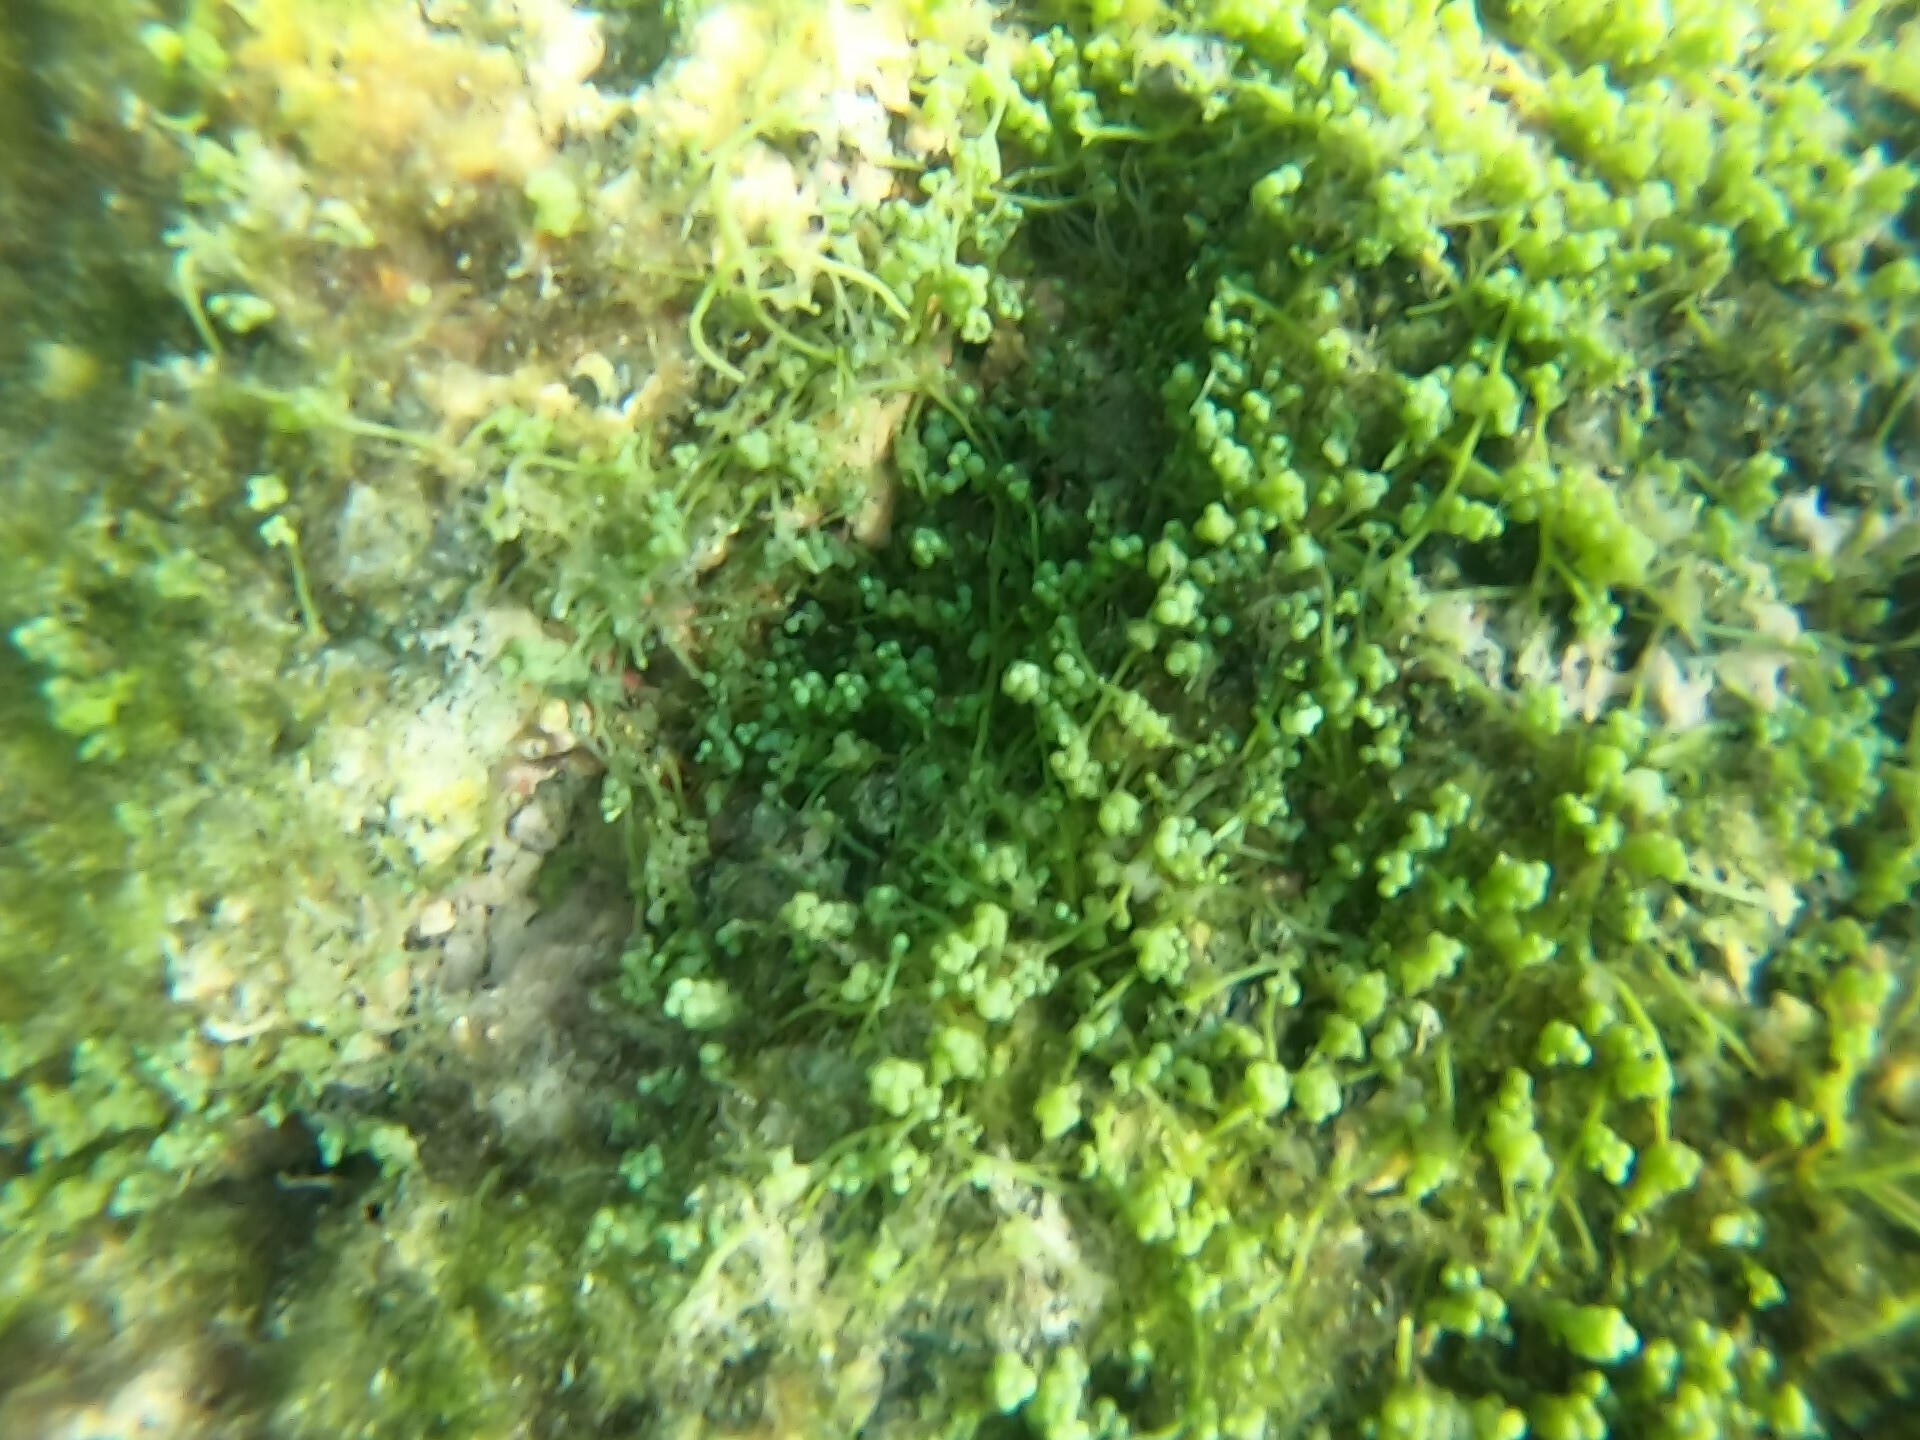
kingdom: Plantae
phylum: Chlorophyta
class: Ulvophyceae
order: Bryopsidales
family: Caulerpaceae
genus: Caulerpa
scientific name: Caulerpa racemosa
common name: Green grape algae
